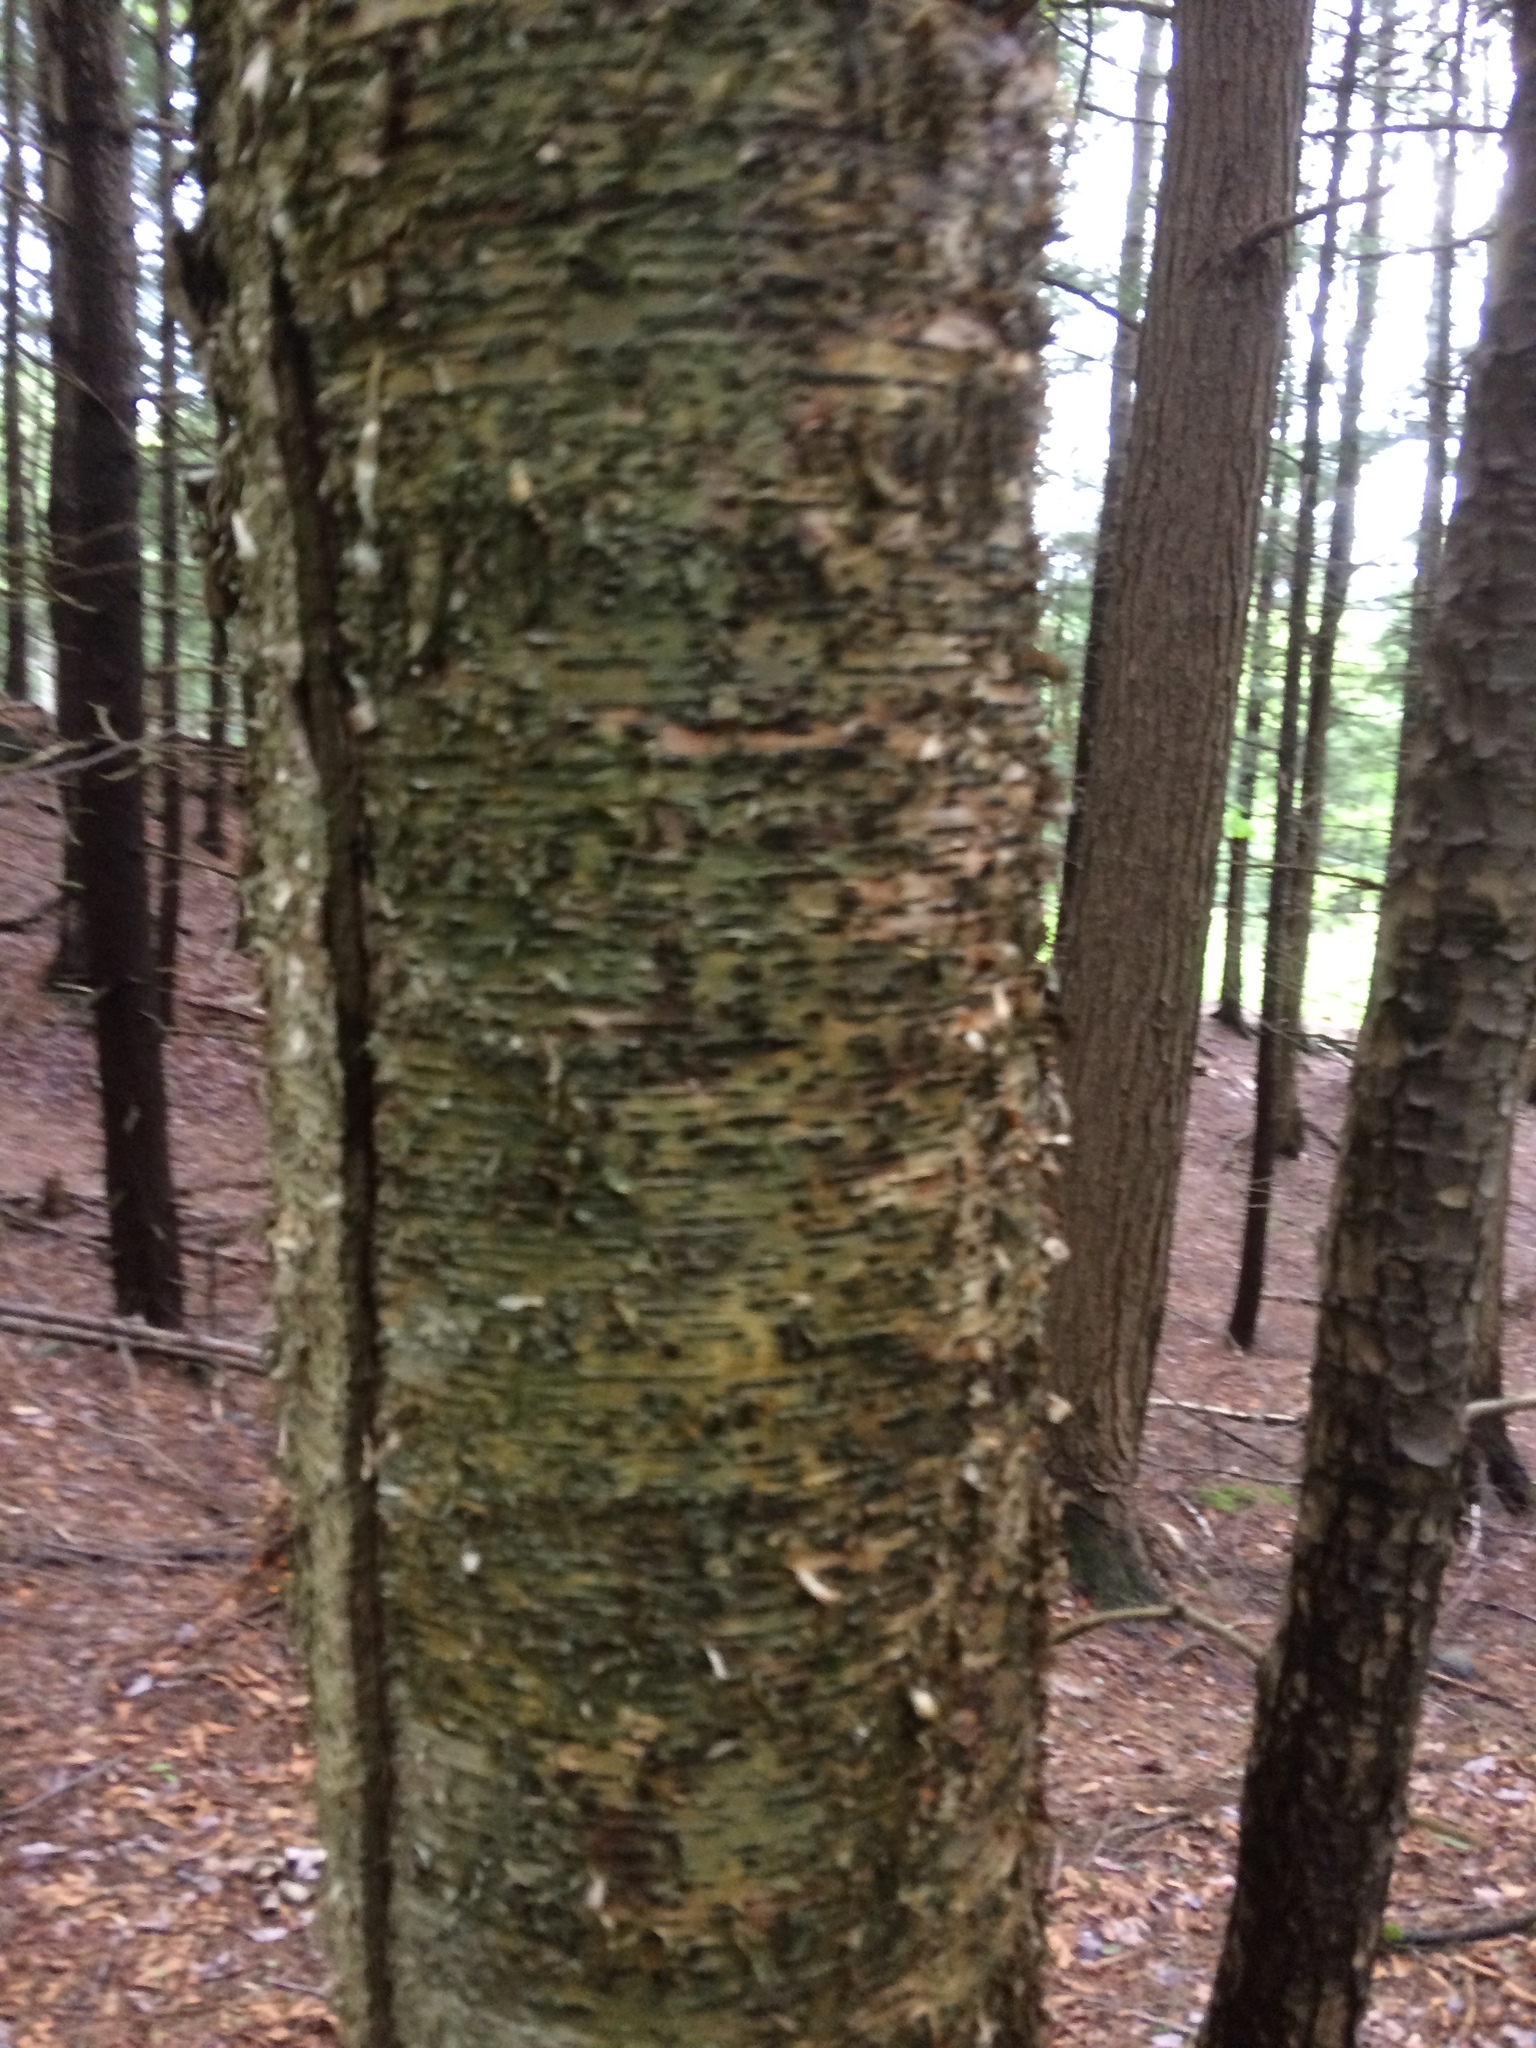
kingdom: Plantae
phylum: Tracheophyta
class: Magnoliopsida
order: Fagales
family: Betulaceae
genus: Betula
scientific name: Betula alleghaniensis
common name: Yellow birch
